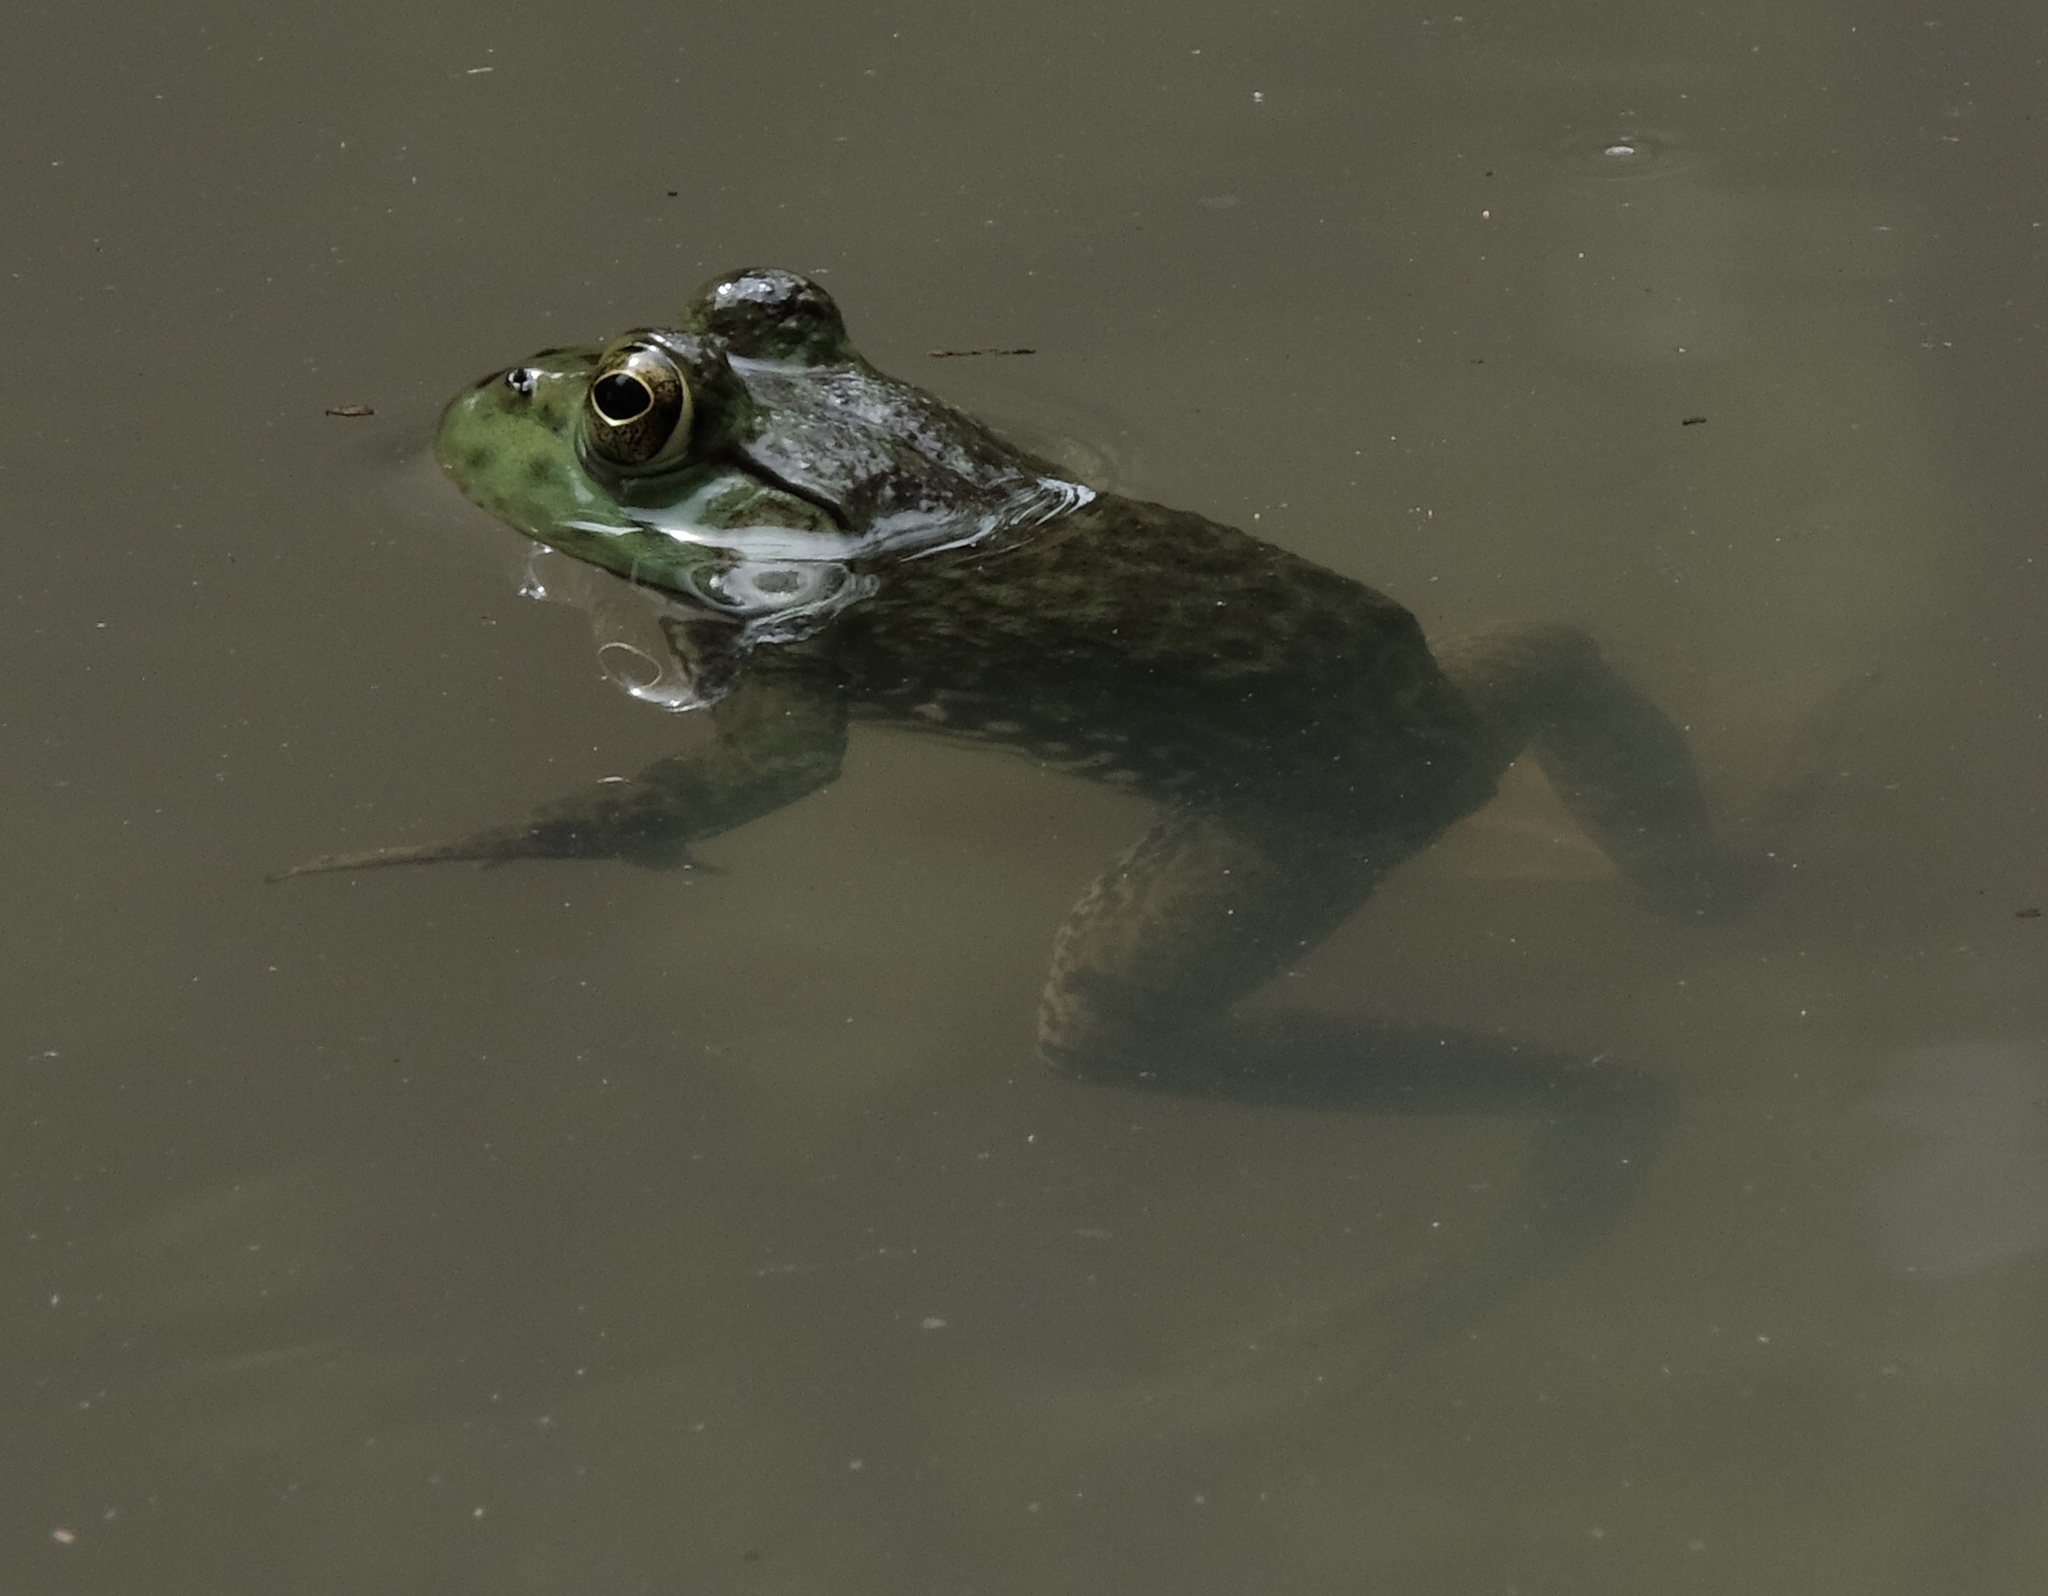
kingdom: Animalia
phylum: Chordata
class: Amphibia
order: Anura
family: Ranidae
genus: Lithobates
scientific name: Lithobates catesbeianus
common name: American bullfrog
